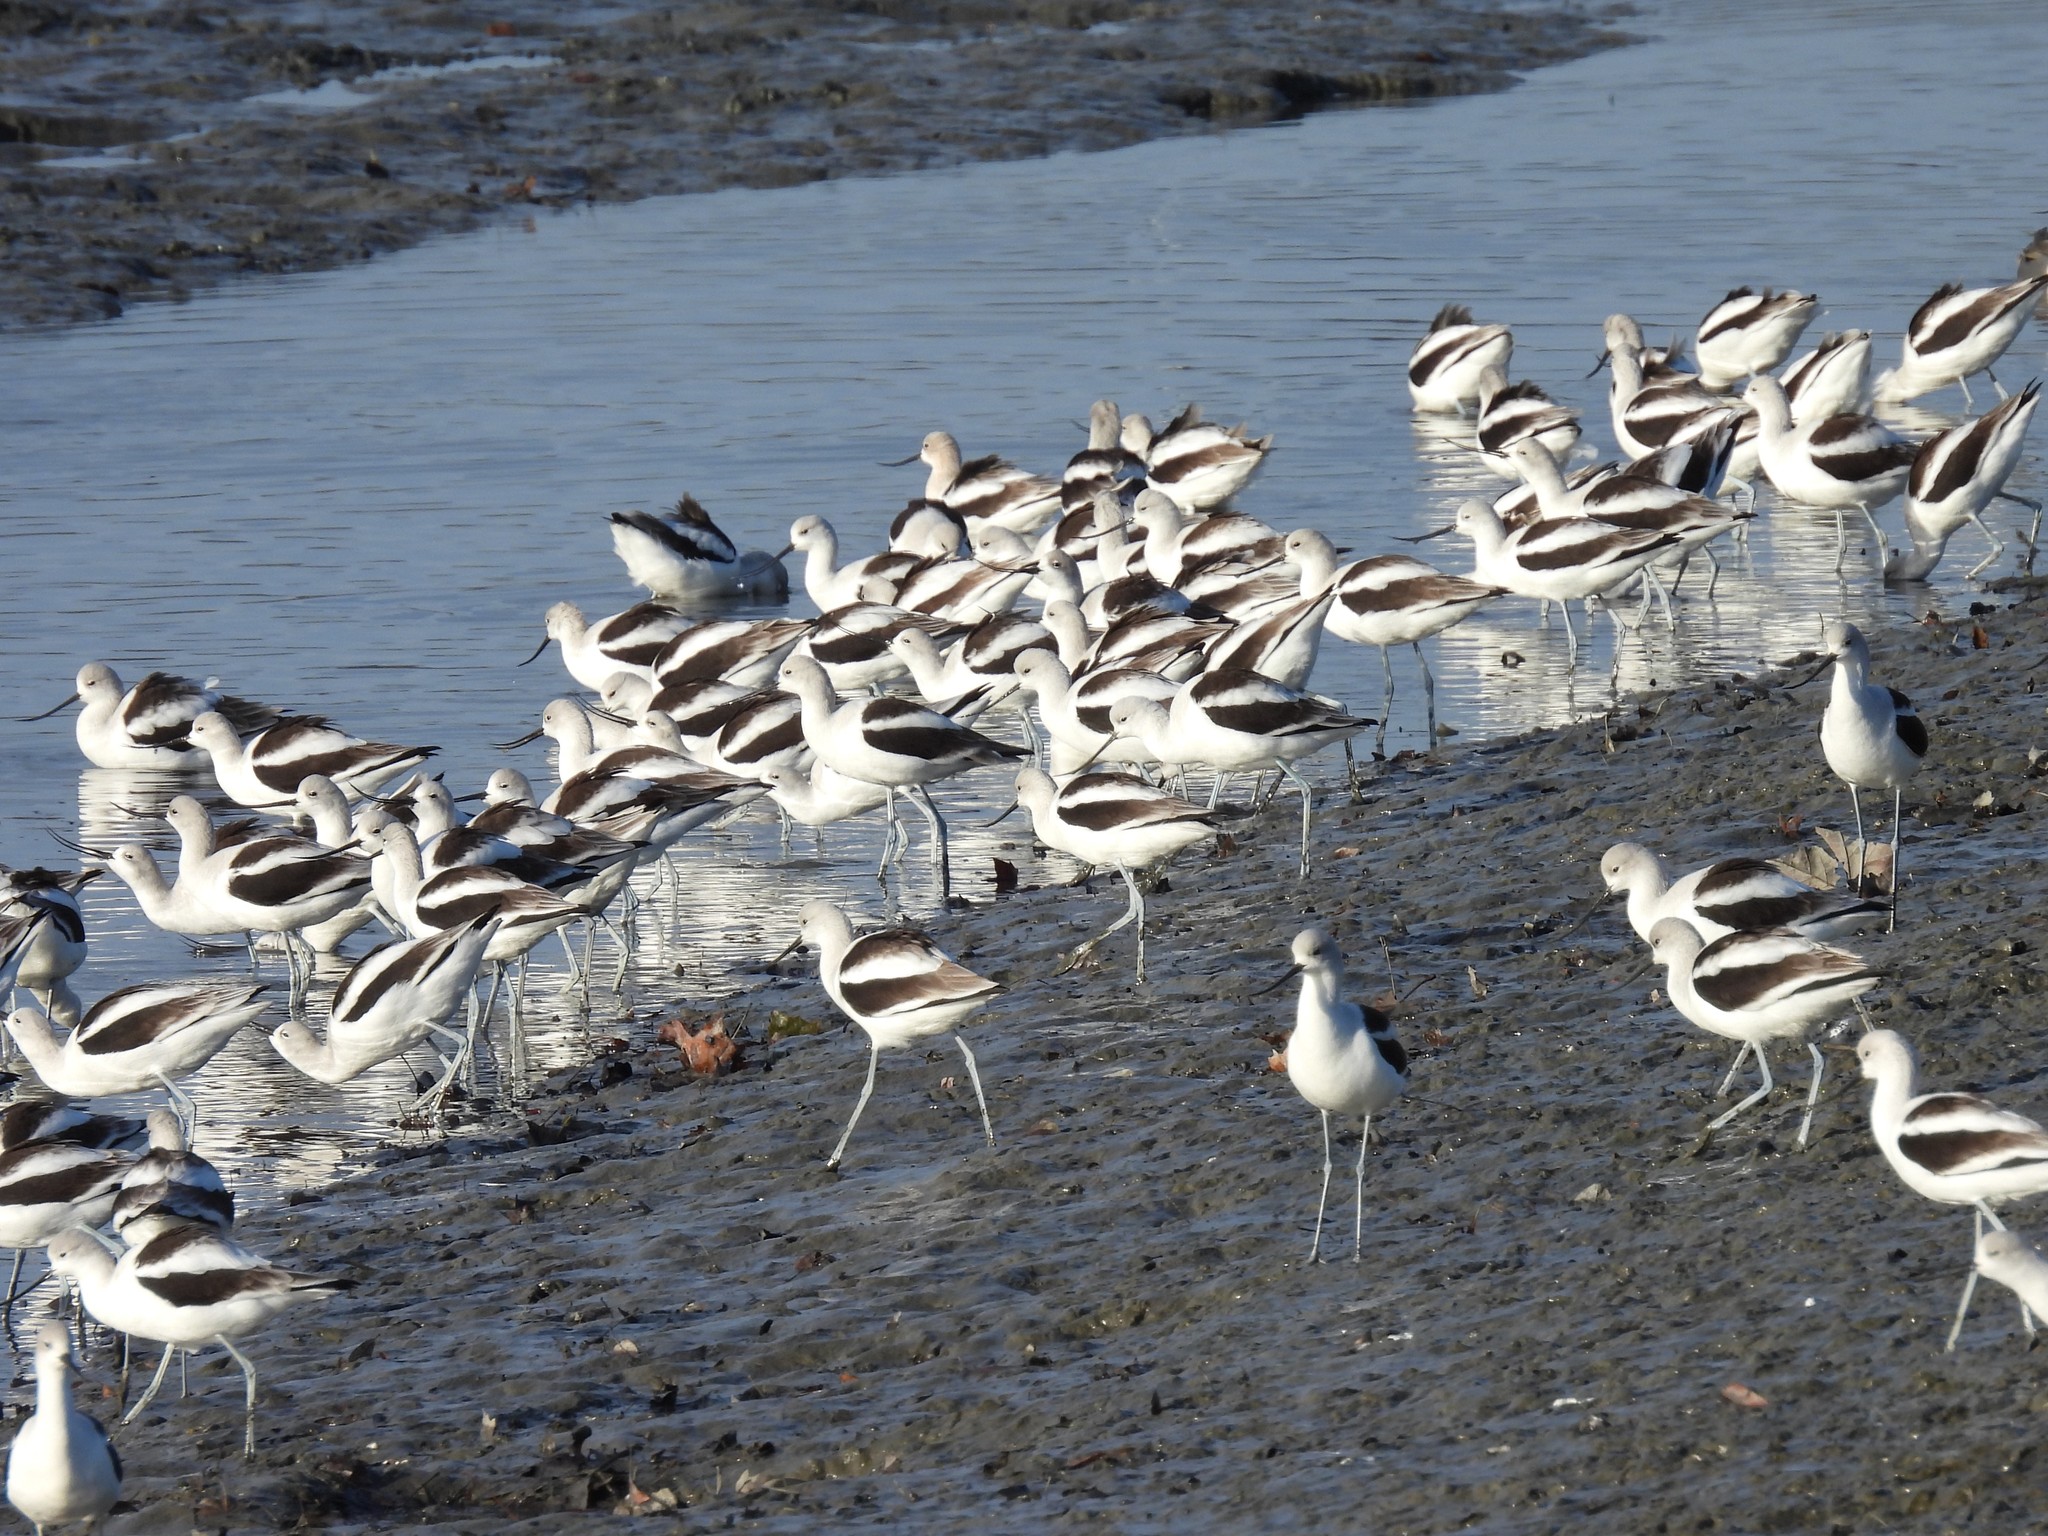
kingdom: Animalia
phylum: Chordata
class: Aves
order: Charadriiformes
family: Recurvirostridae
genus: Recurvirostra
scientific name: Recurvirostra americana
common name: American avocet
